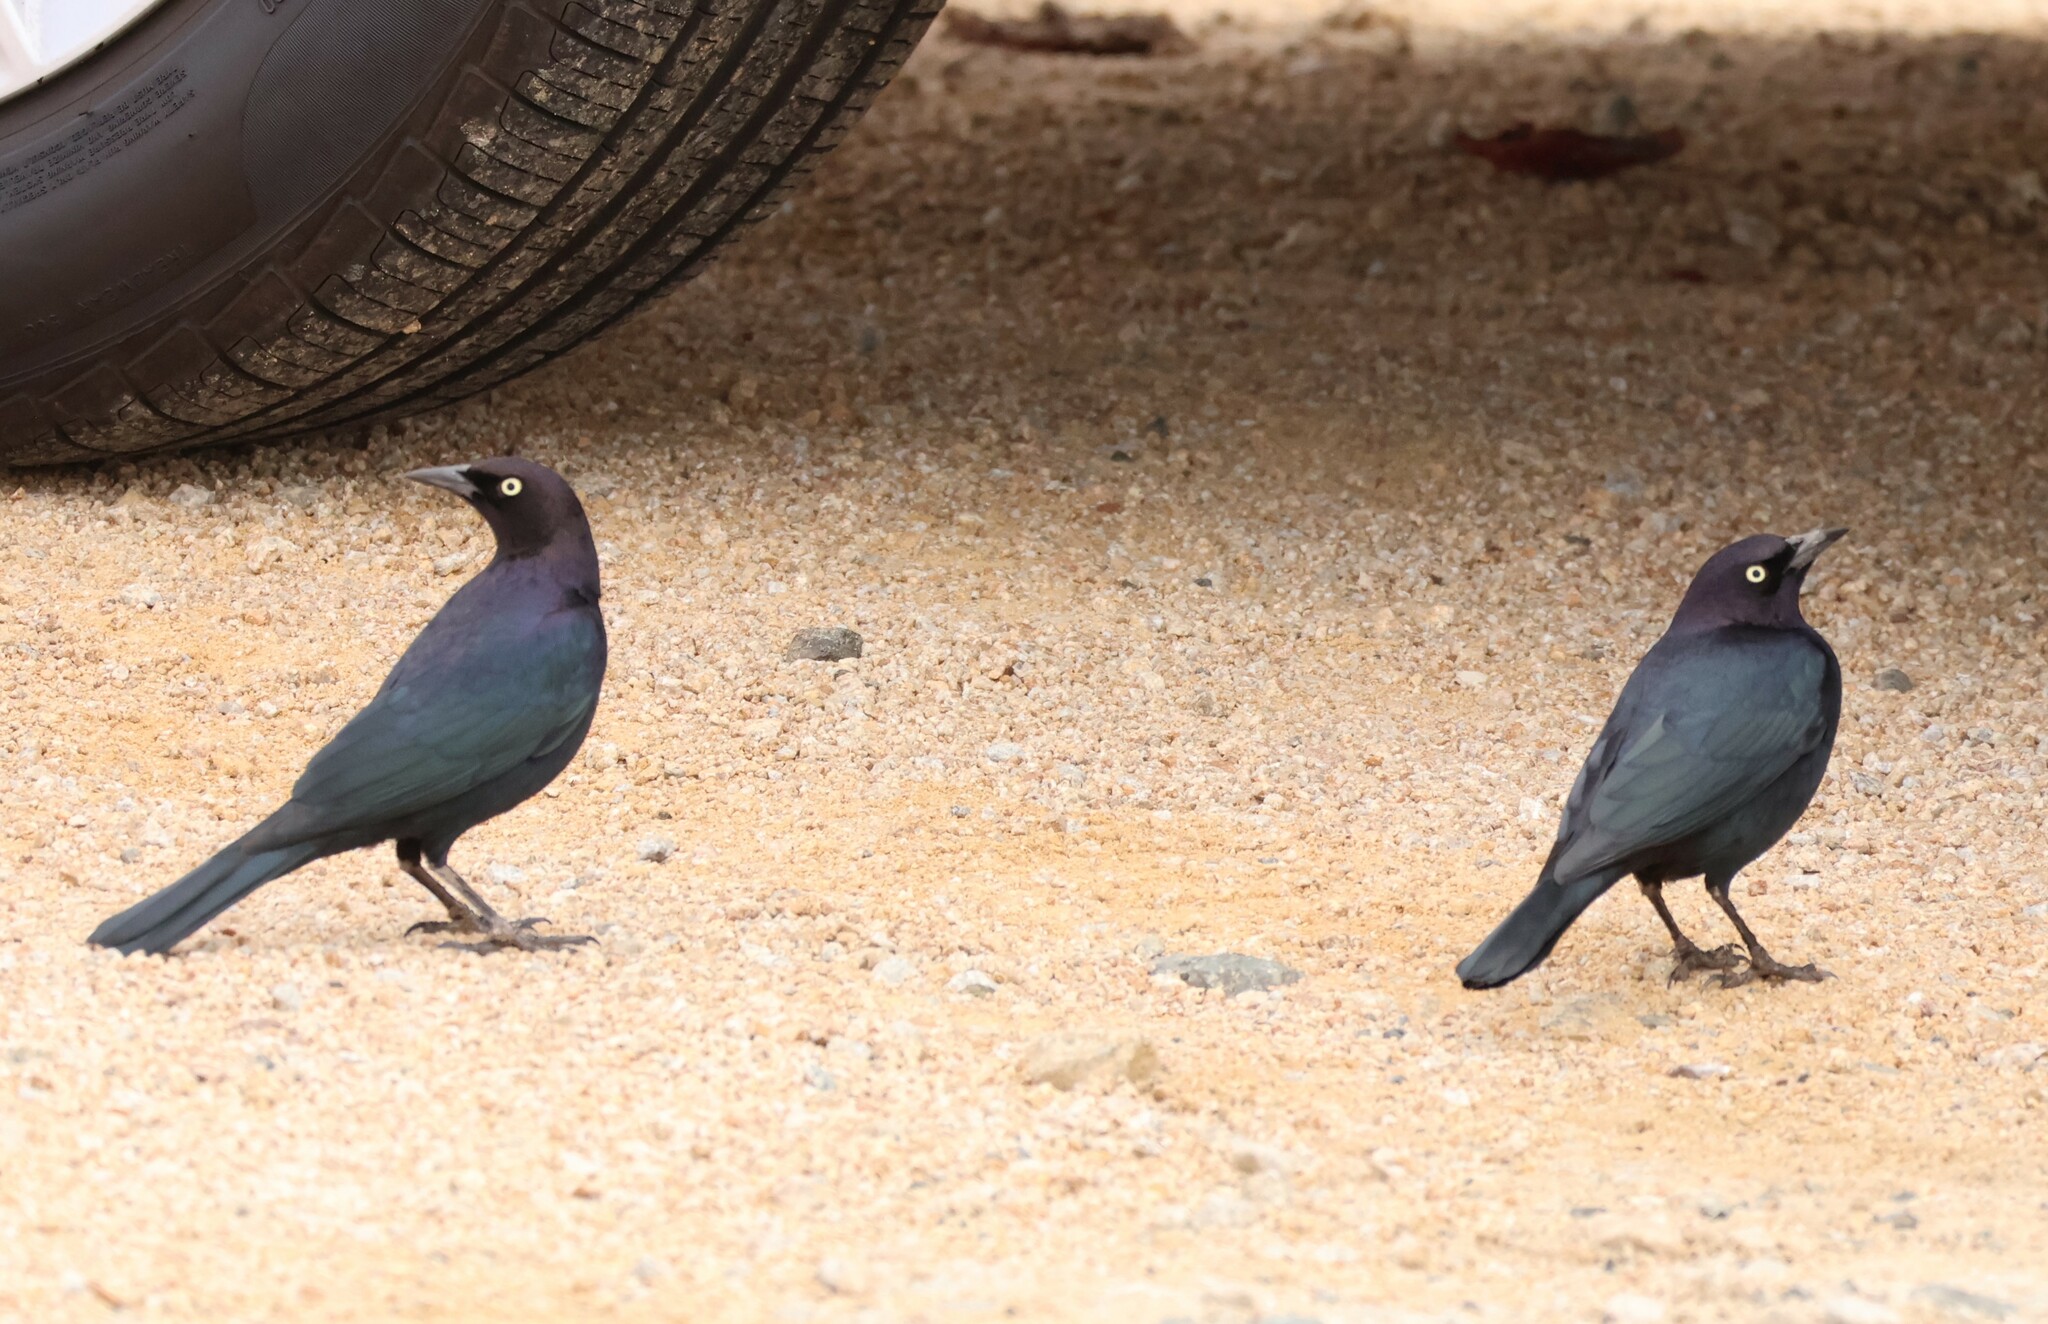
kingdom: Animalia
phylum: Chordata
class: Aves
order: Passeriformes
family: Icteridae
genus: Euphagus
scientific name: Euphagus cyanocephalus
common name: Brewer's blackbird
